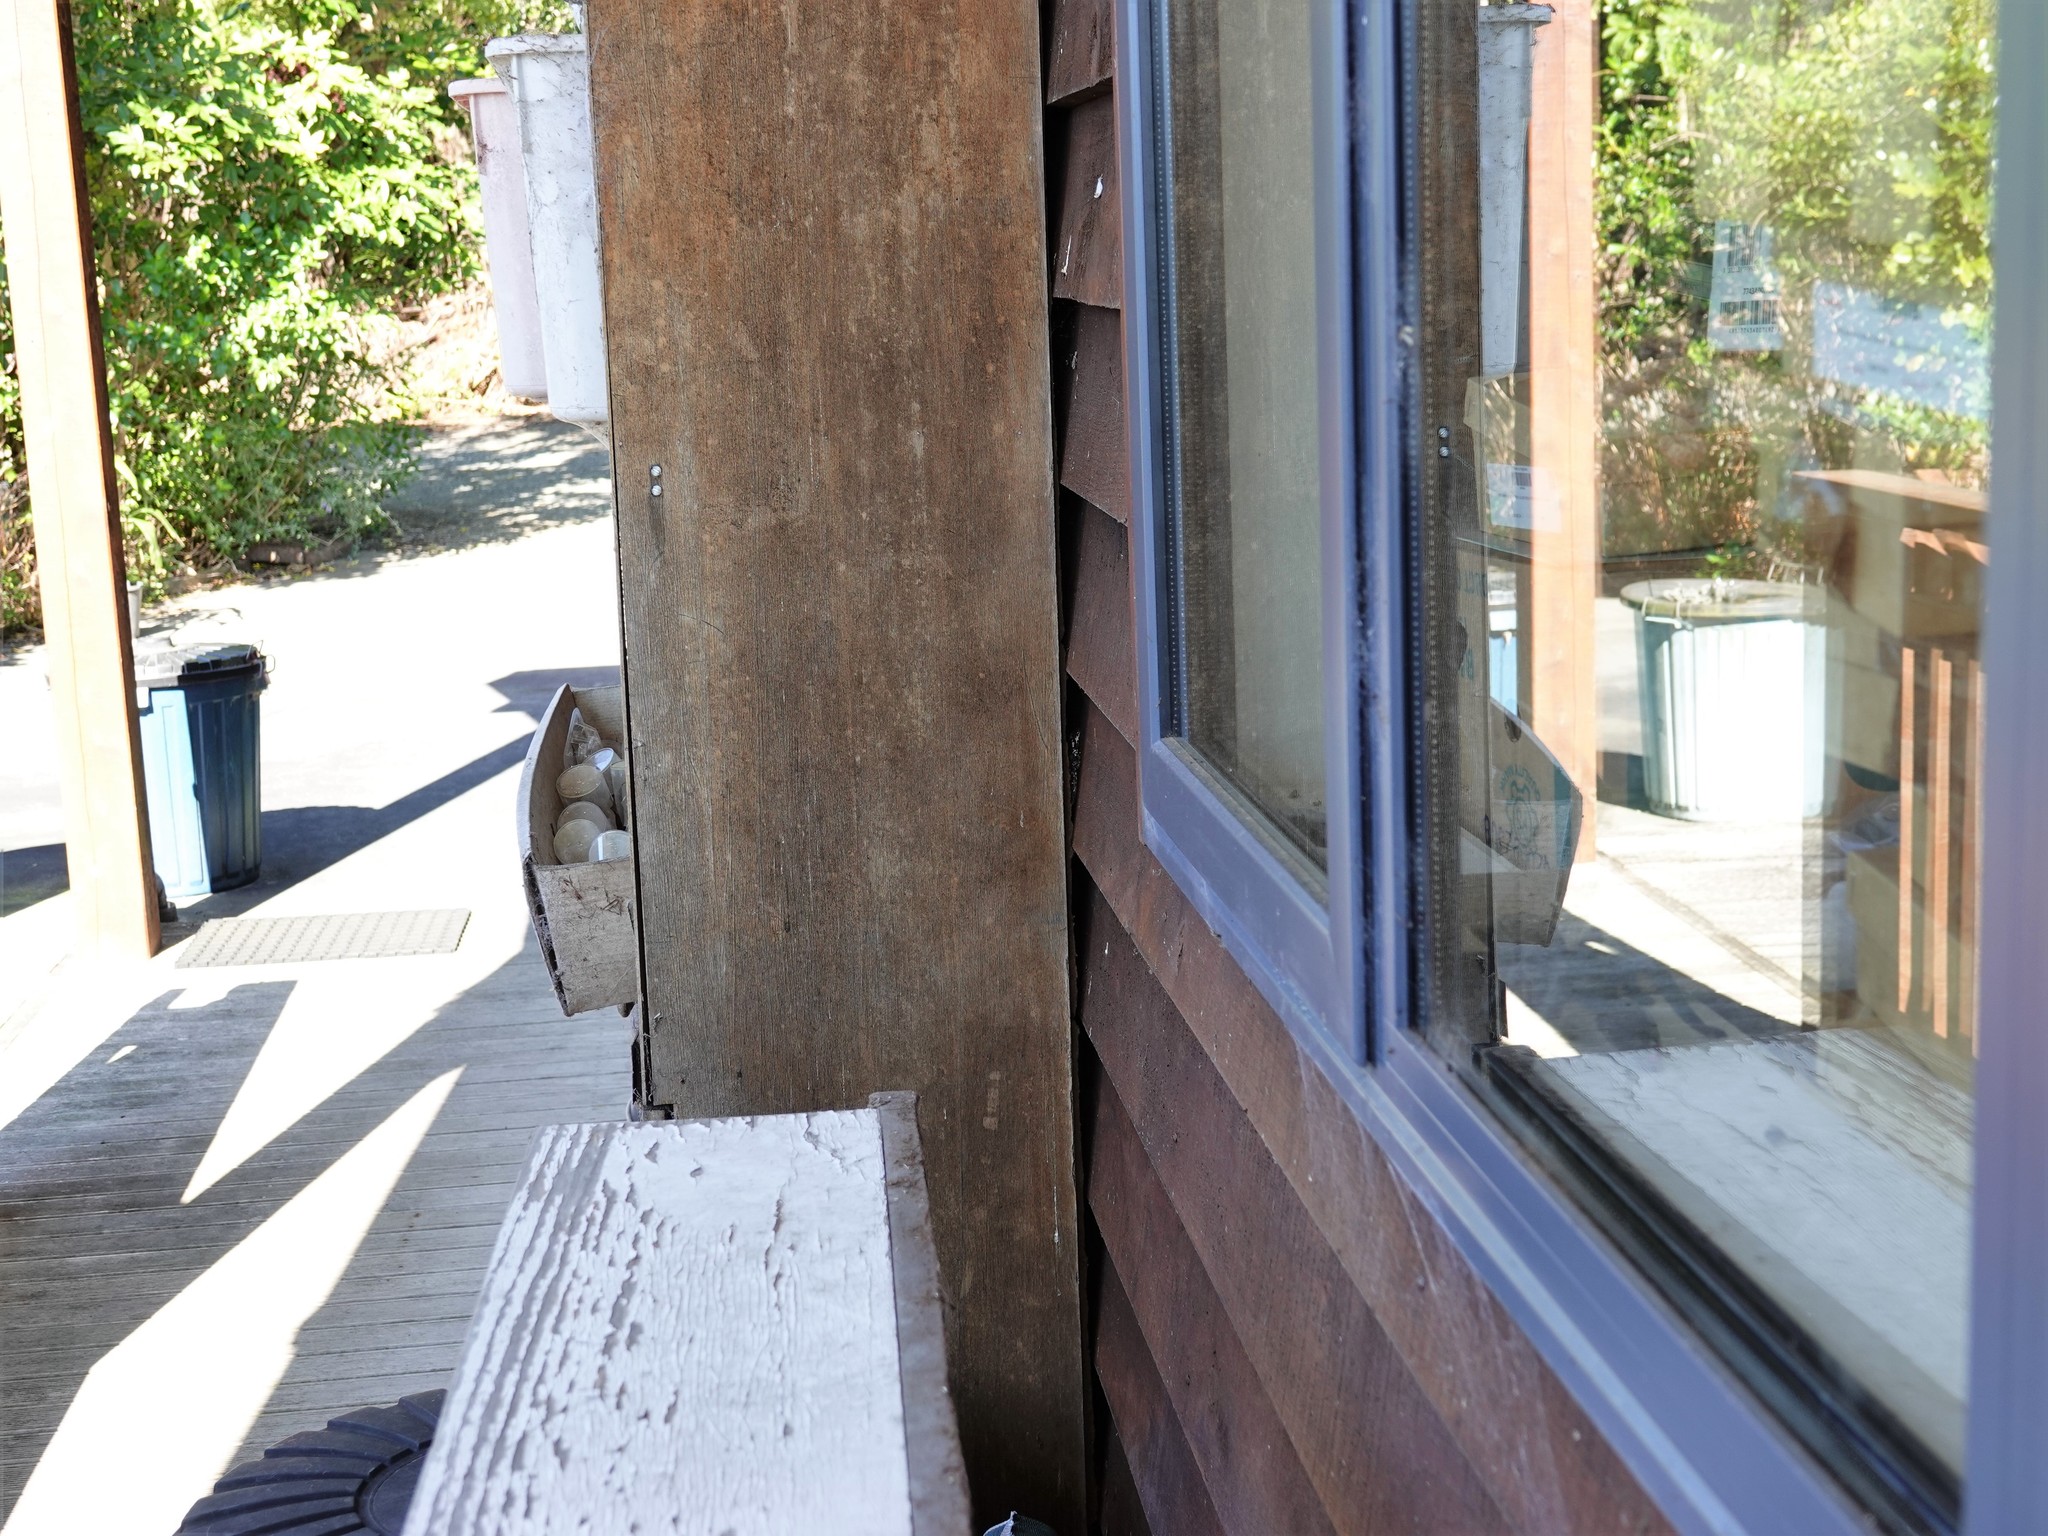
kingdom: Animalia
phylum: Arthropoda
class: Arachnida
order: Trombidiformes
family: Pterygosomatidae
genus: Geckobia
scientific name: Geckobia
